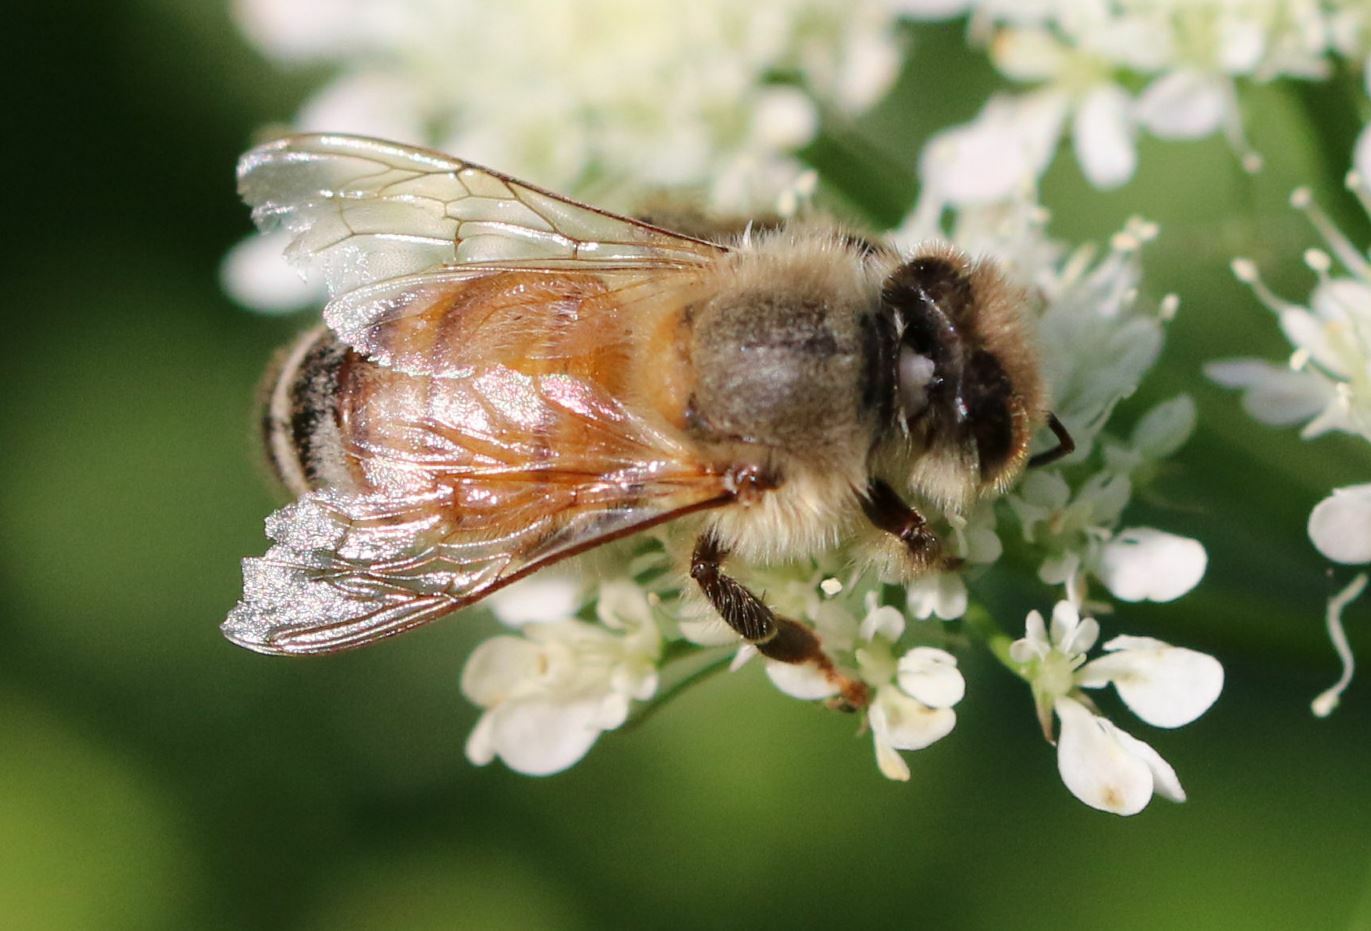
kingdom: Animalia
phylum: Arthropoda
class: Insecta
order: Hymenoptera
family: Apidae
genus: Apis
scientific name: Apis mellifera
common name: Honey bee
